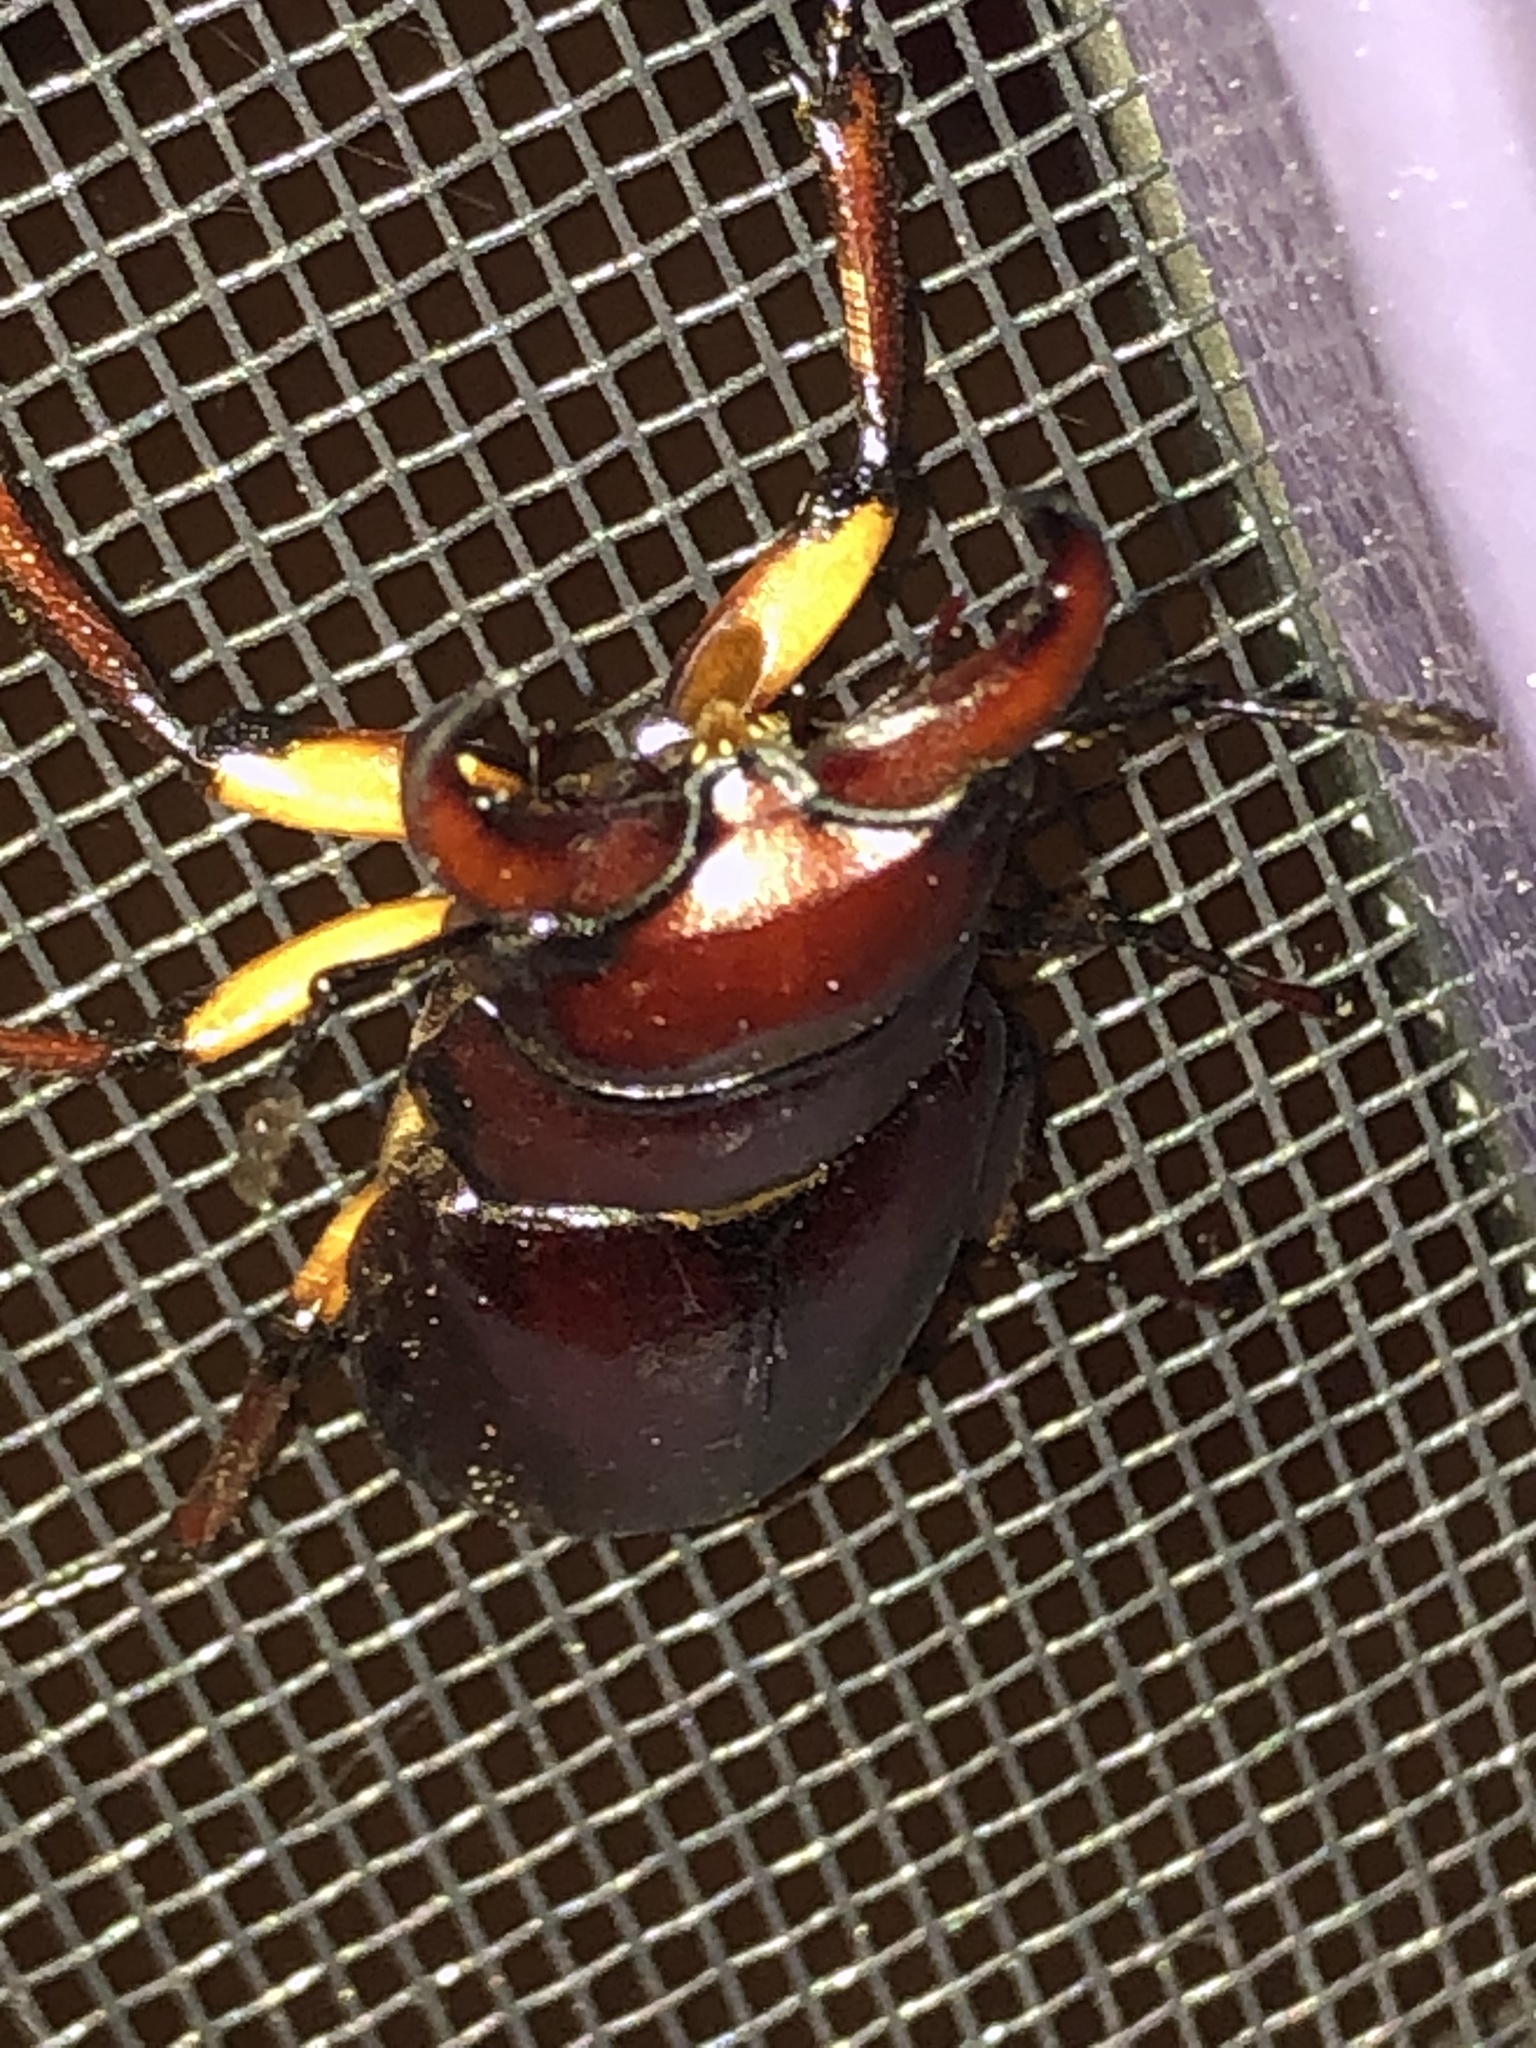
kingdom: Animalia
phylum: Arthropoda
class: Insecta
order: Coleoptera
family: Lucanidae
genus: Lucanus
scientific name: Lucanus capreolus
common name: Stag beetle
